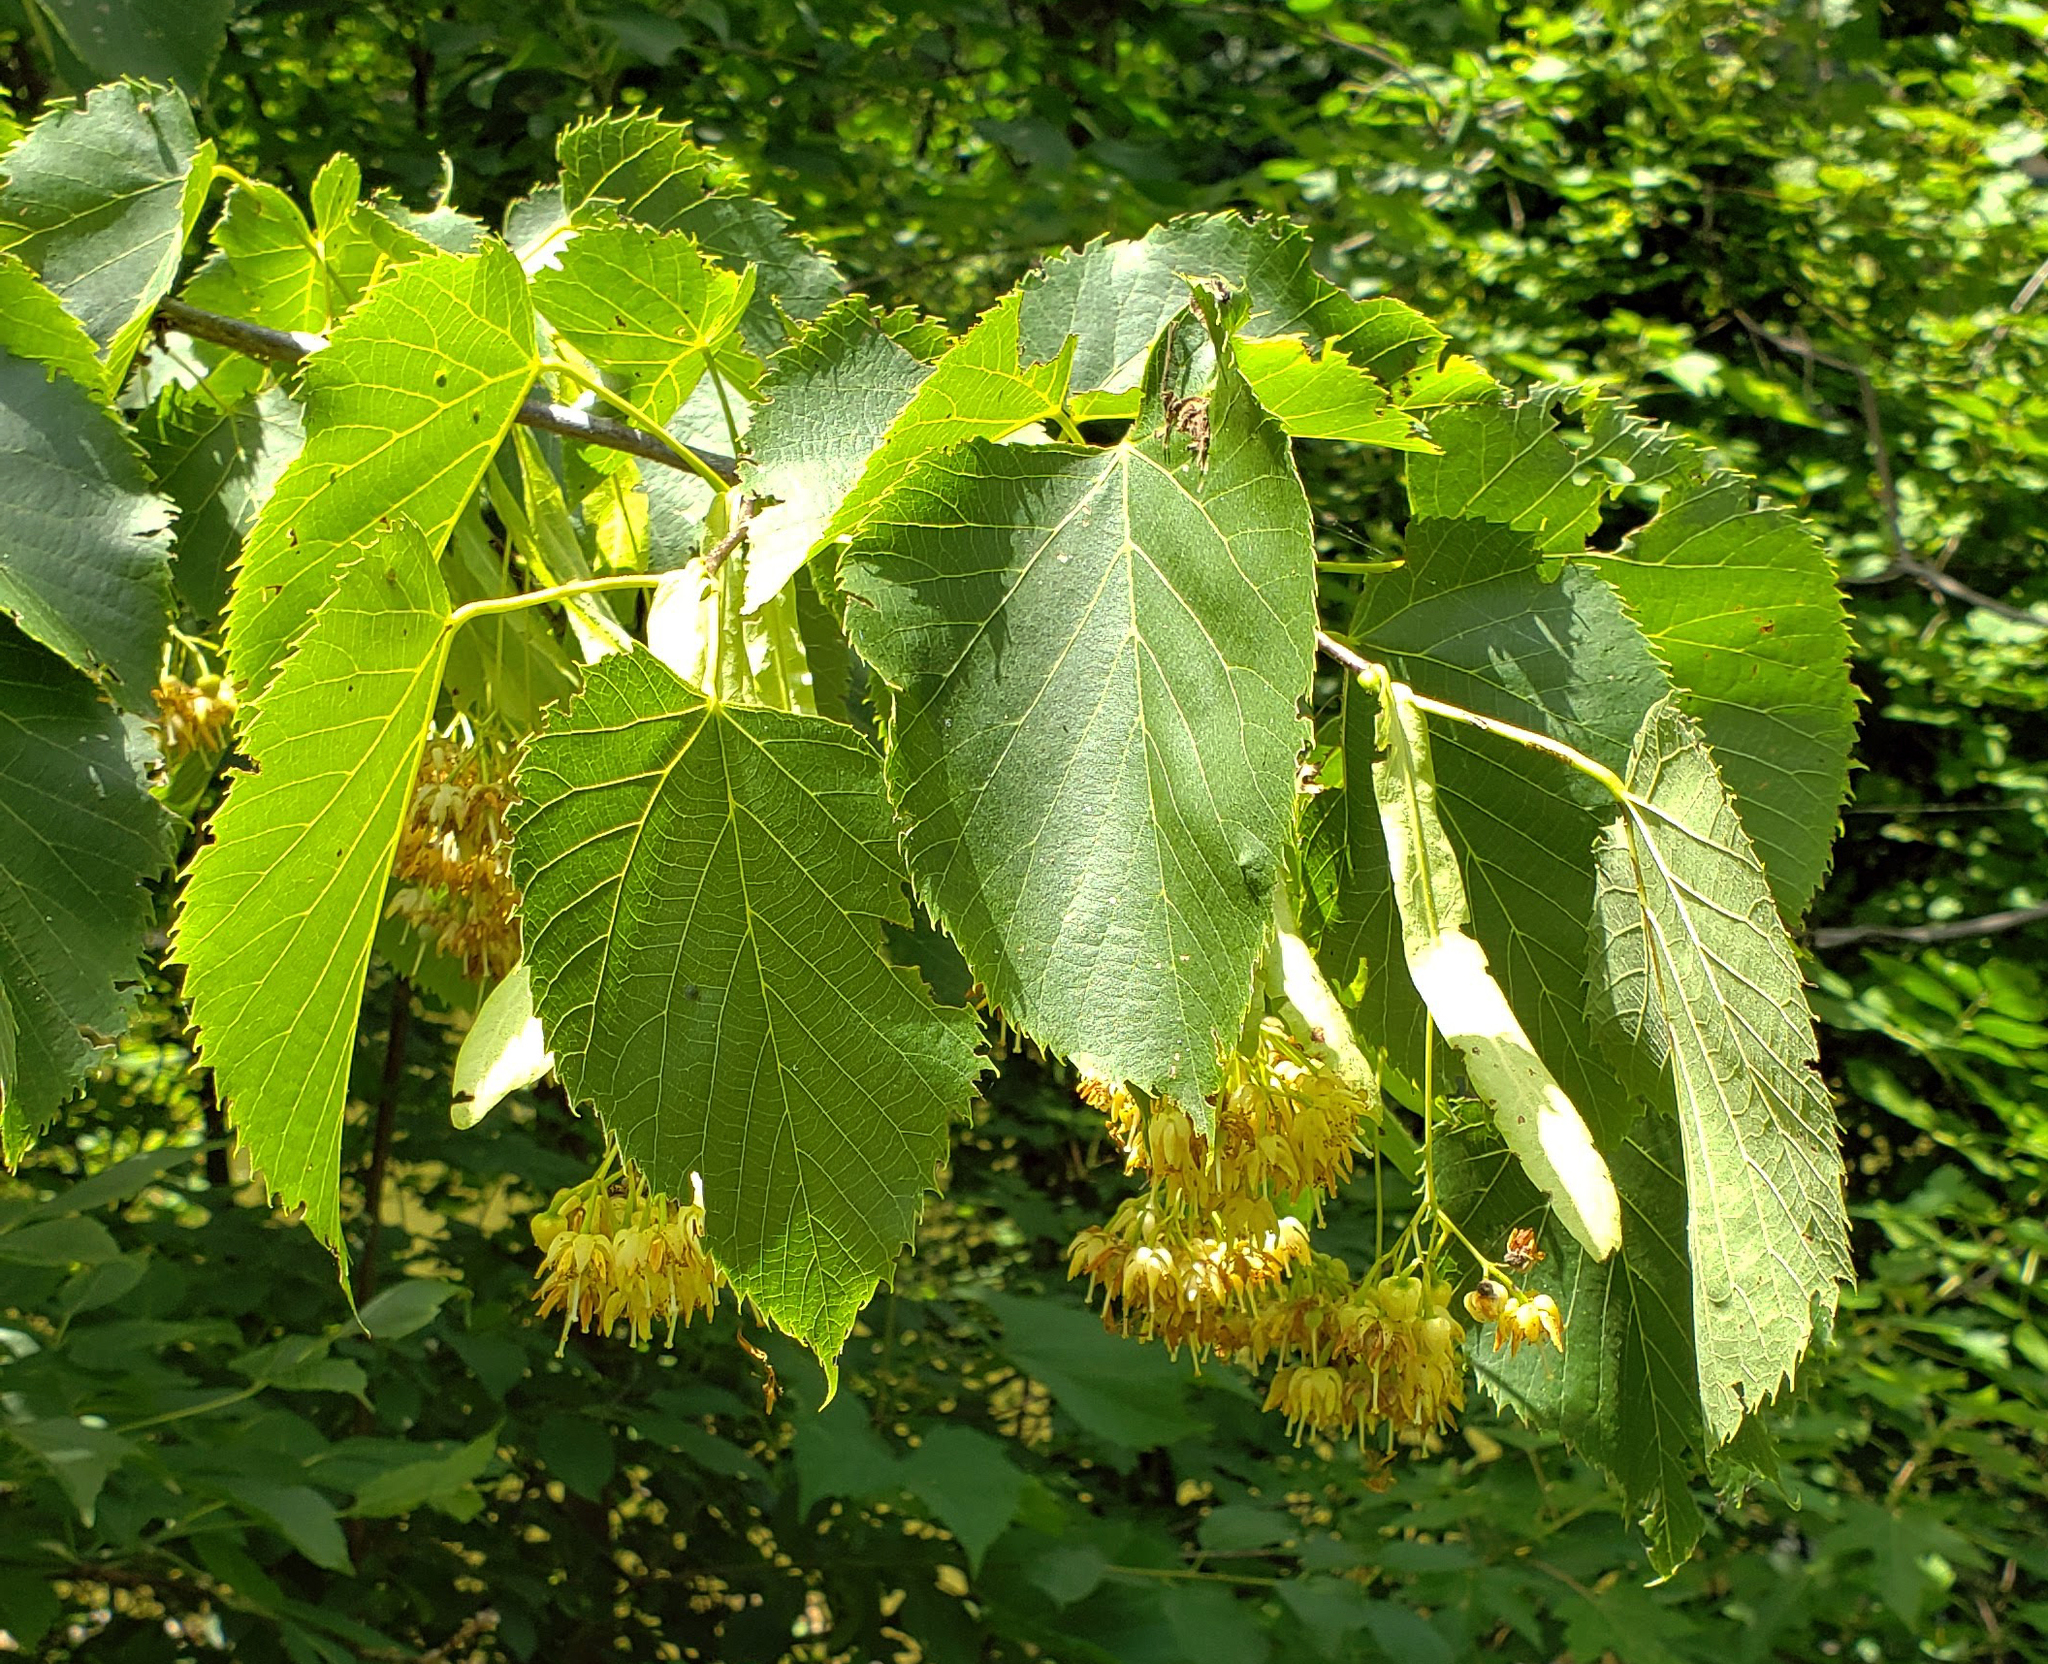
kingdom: Plantae
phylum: Tracheophyta
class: Magnoliopsida
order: Malvales
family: Malvaceae
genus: Tilia
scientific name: Tilia americana
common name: Basswood
